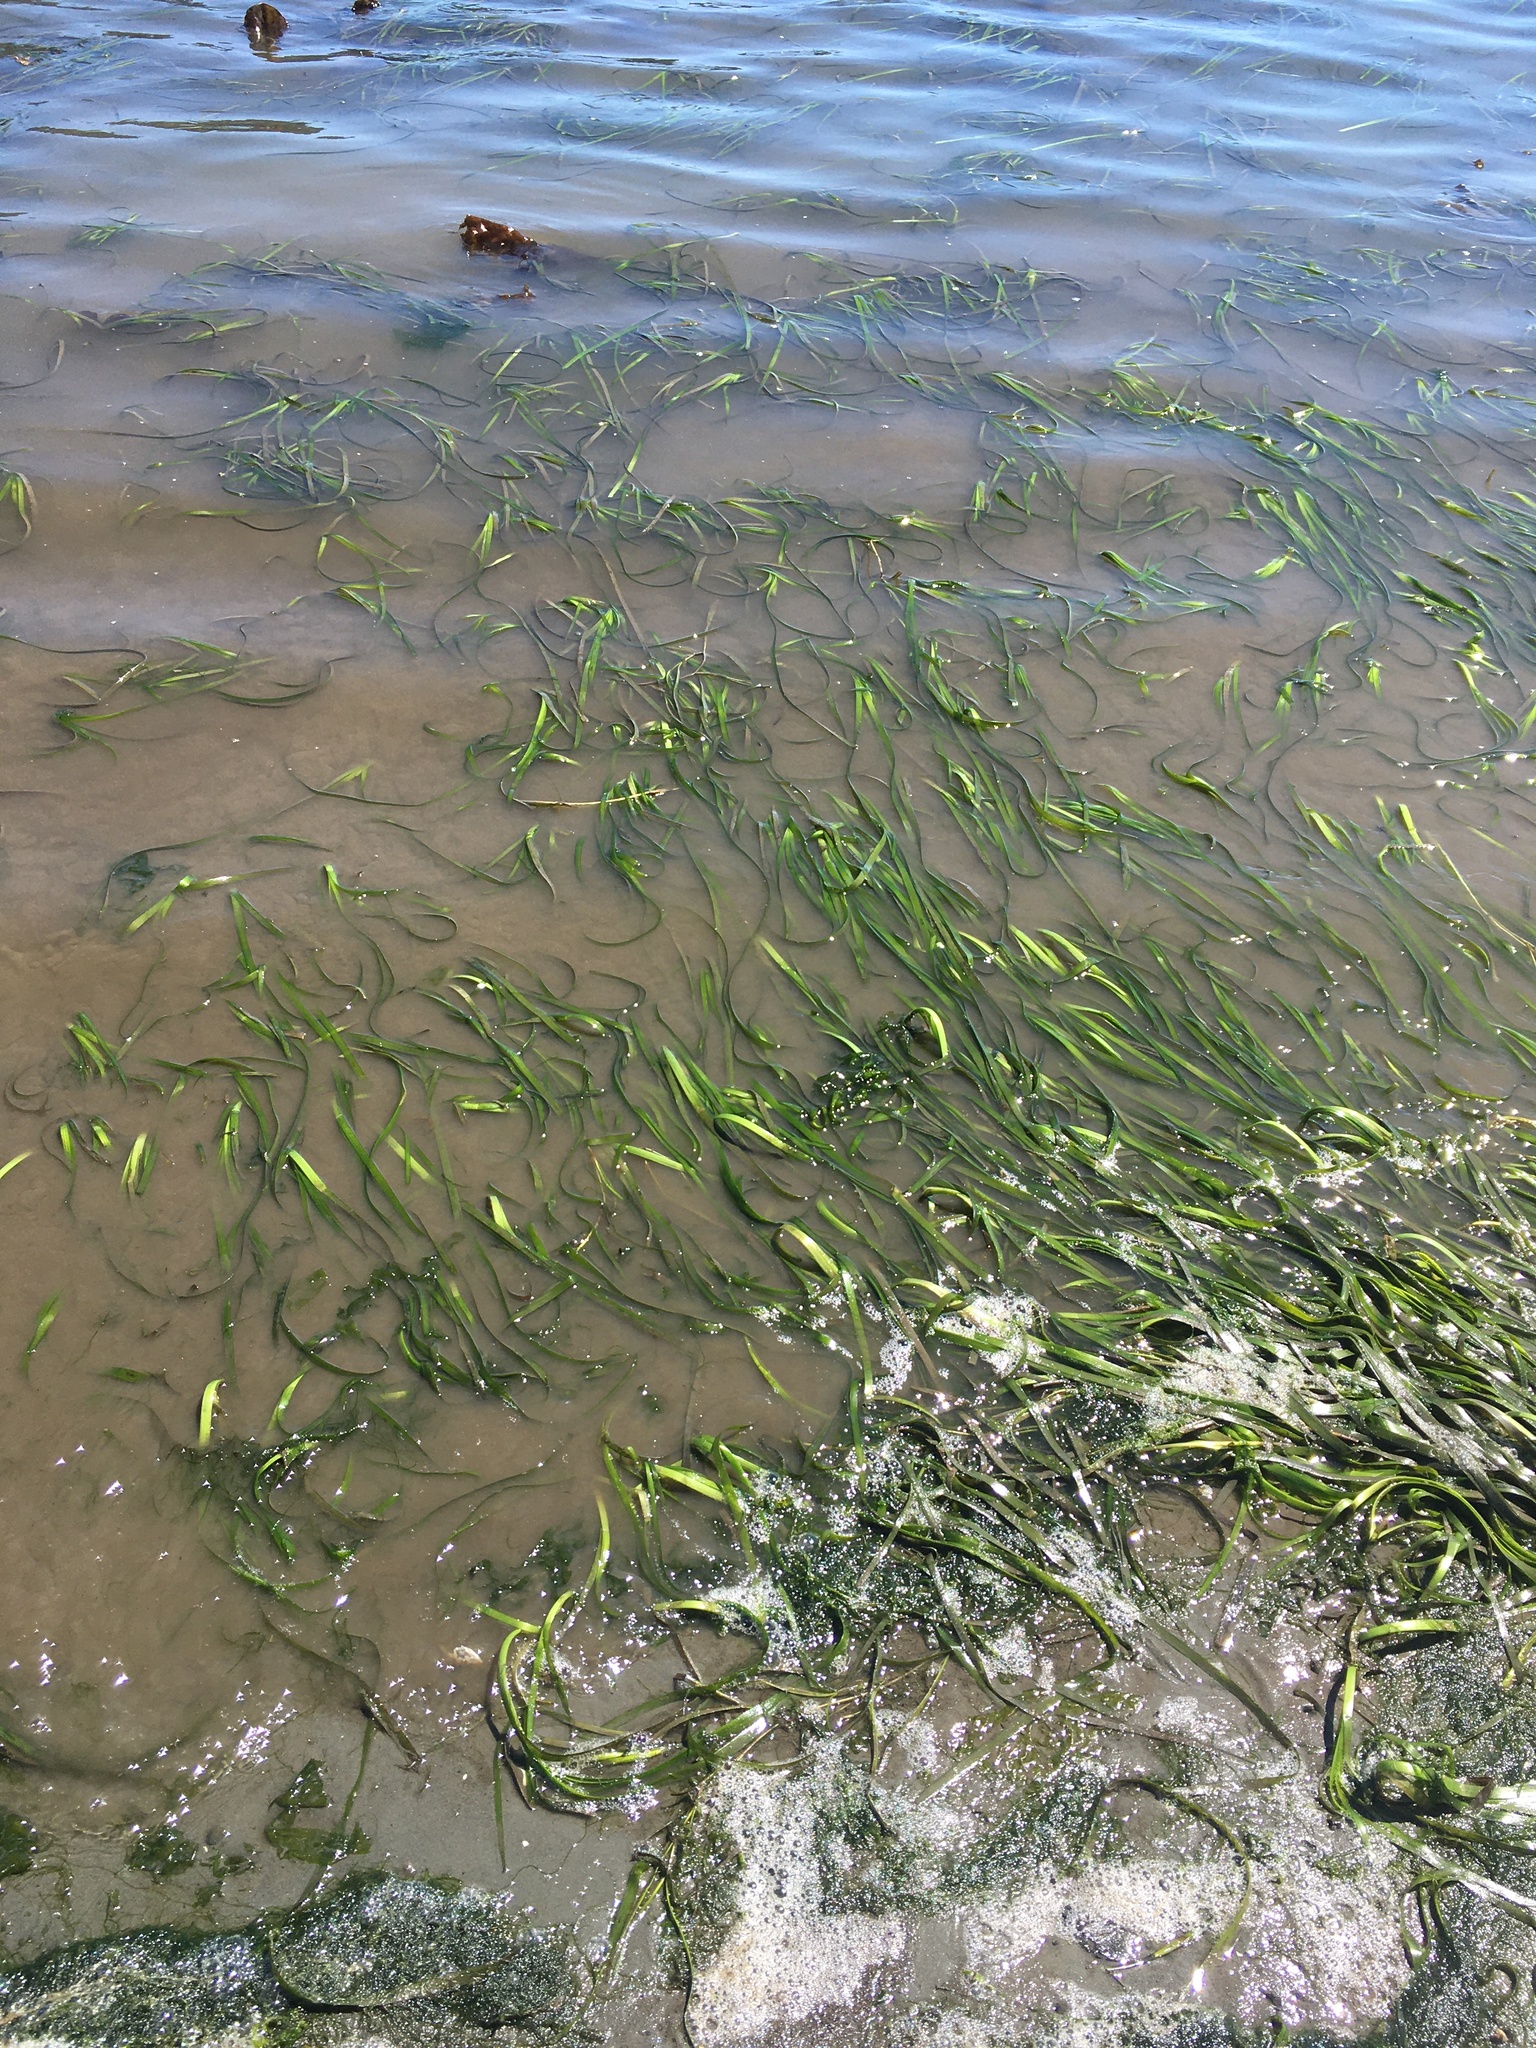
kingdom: Plantae
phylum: Tracheophyta
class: Liliopsida
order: Alismatales
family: Zosteraceae
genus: Zostera
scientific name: Zostera marina
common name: Eelgrass
